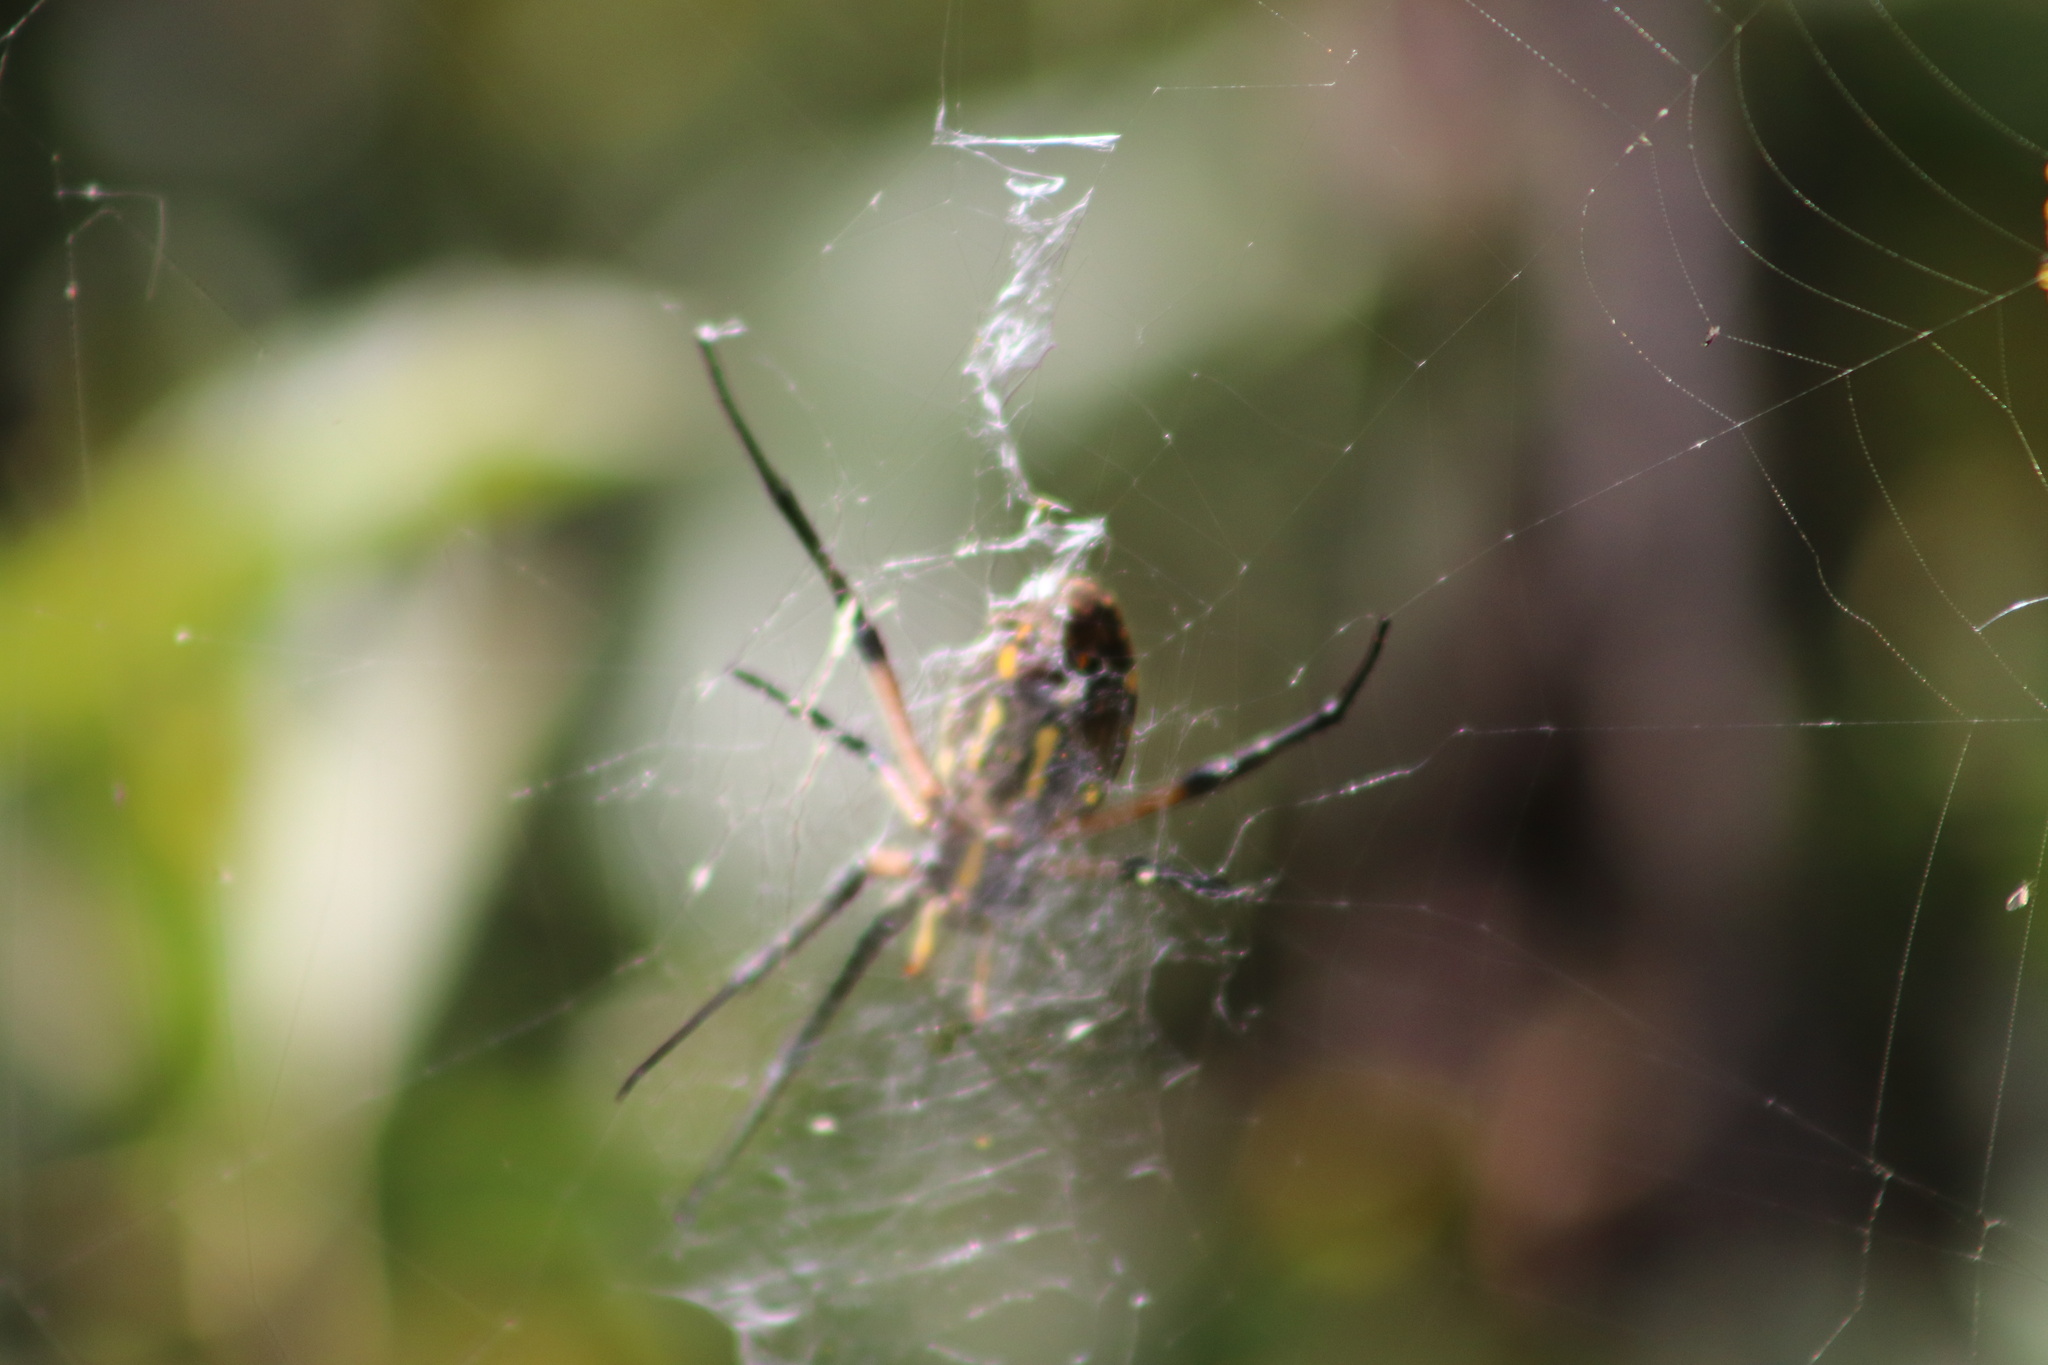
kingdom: Animalia
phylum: Arthropoda
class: Arachnida
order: Araneae
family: Araneidae
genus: Argiope
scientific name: Argiope aurantia
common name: Orb weavers
